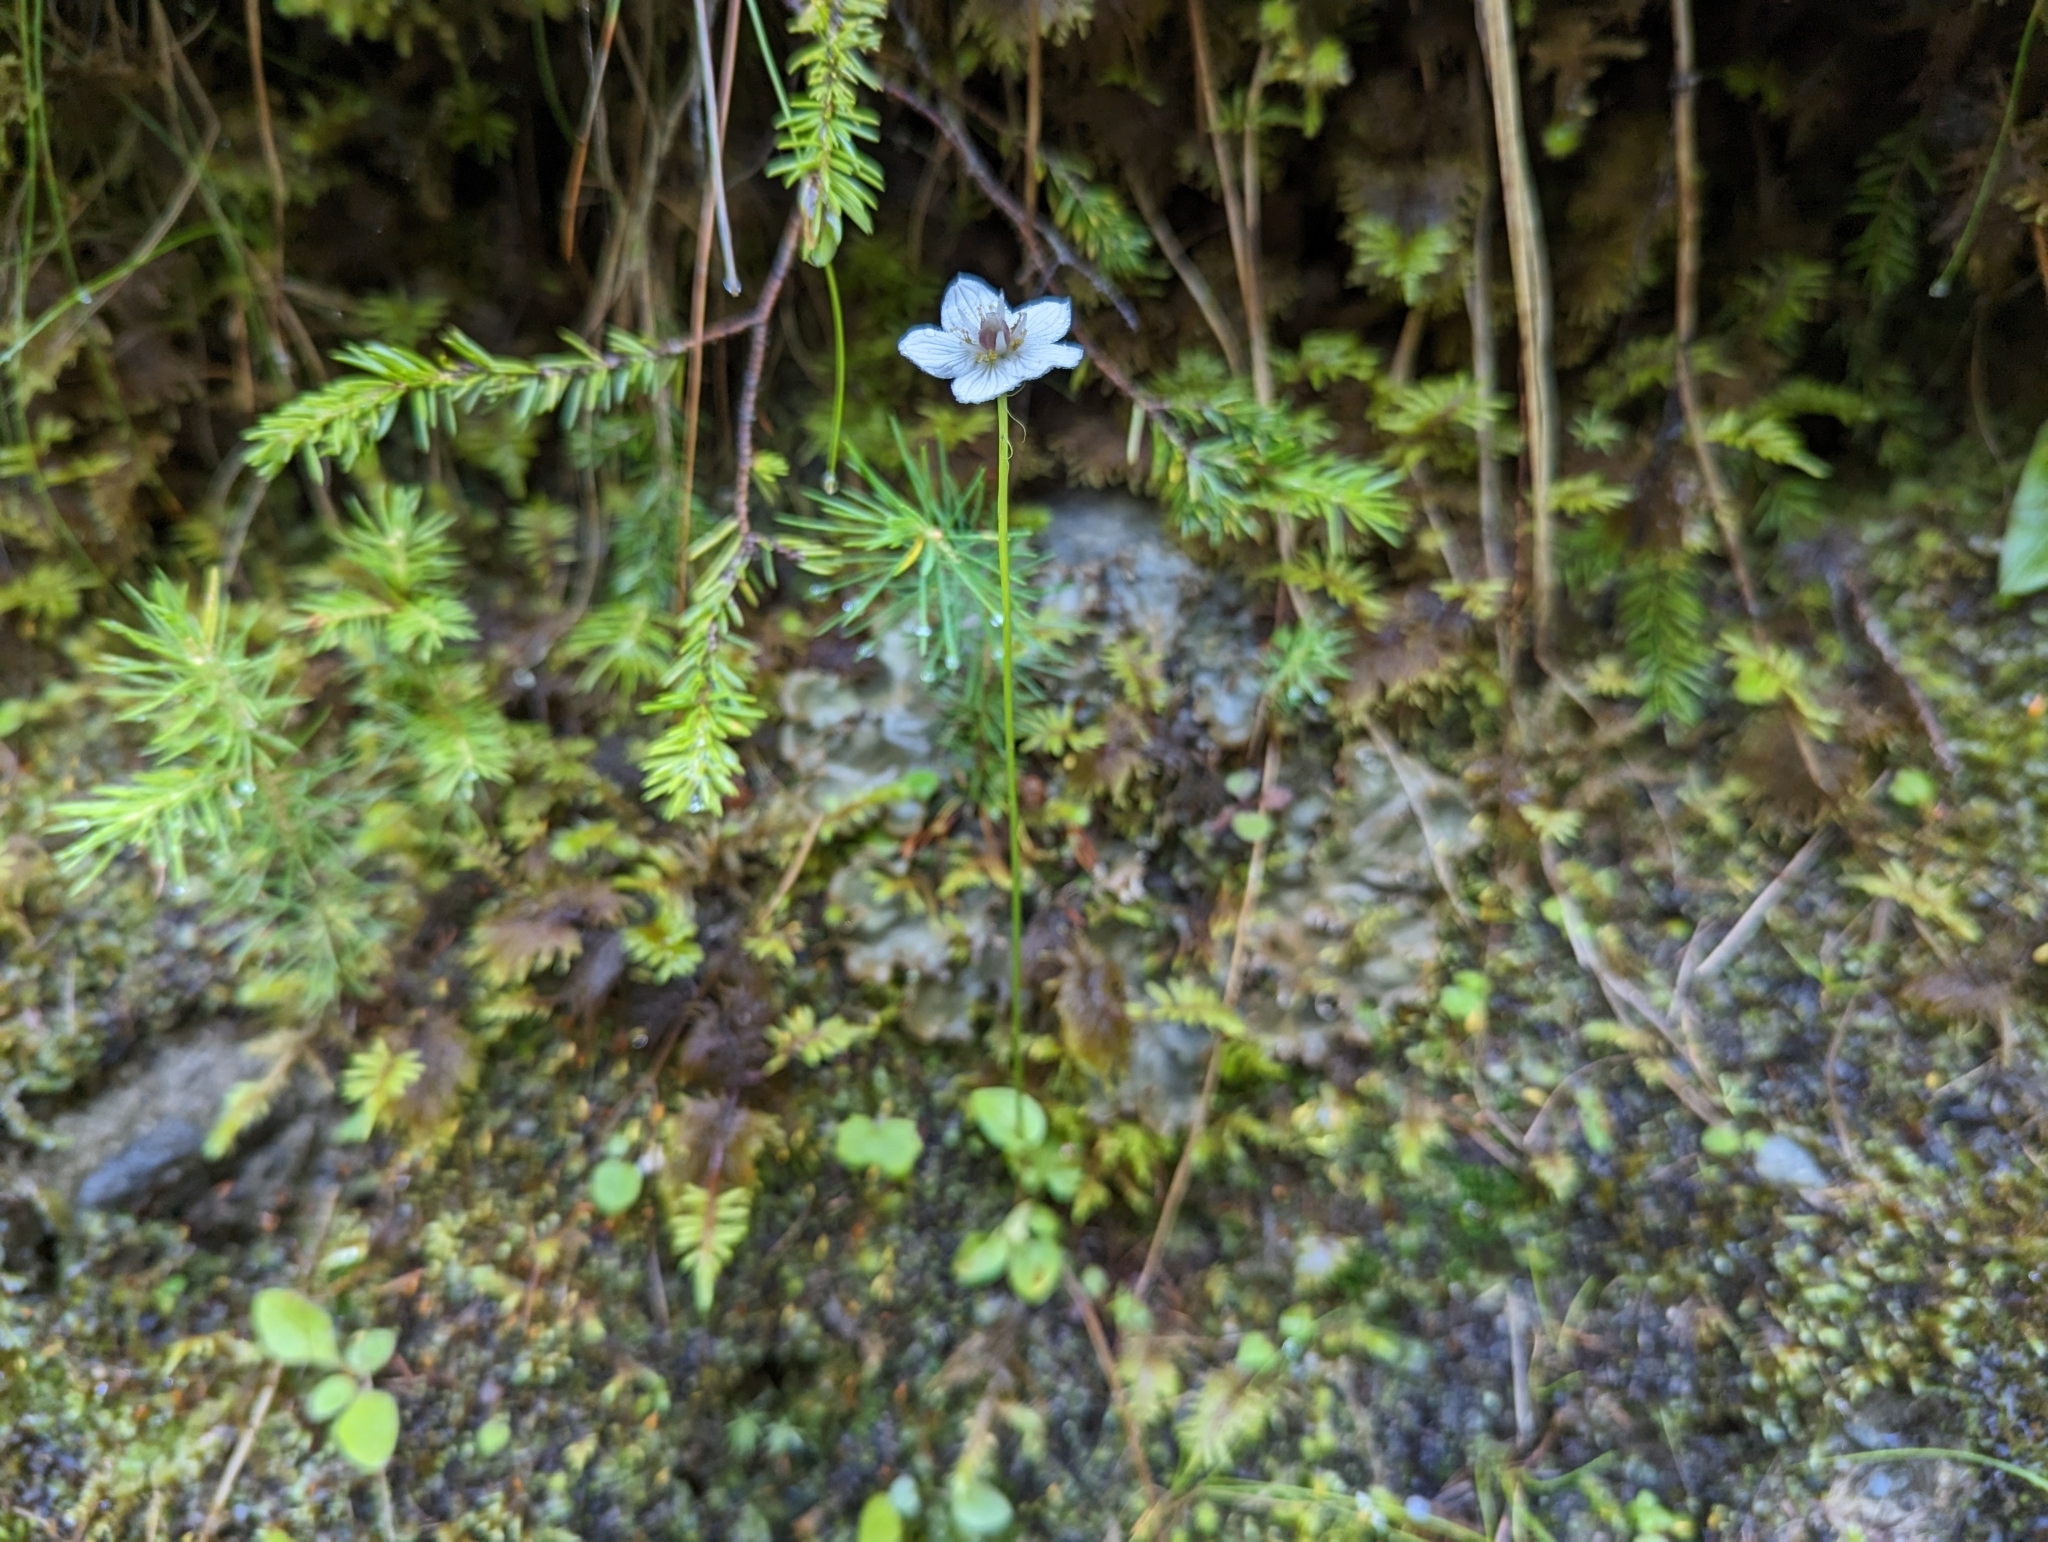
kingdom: Plantae
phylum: Tracheophyta
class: Magnoliopsida
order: Celastrales
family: Parnassiaceae
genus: Parnassia
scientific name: Parnassia palustris
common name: Grass-of-parnassus
